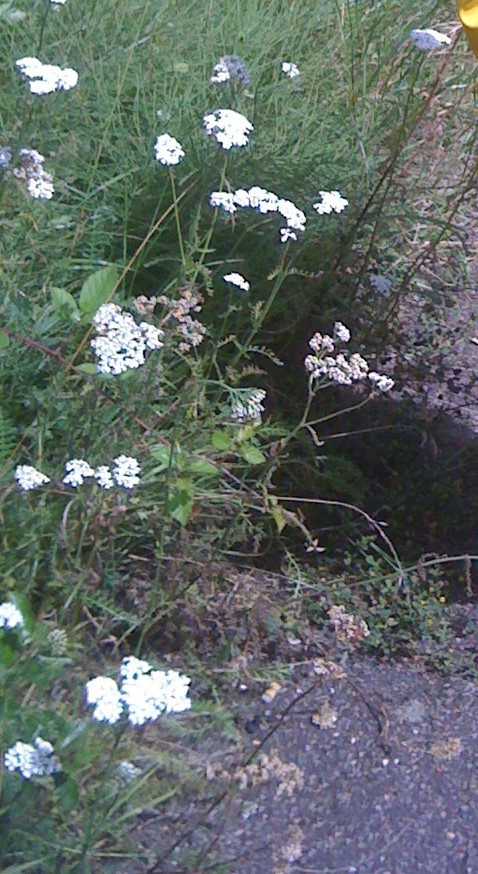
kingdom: Plantae
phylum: Tracheophyta
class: Magnoliopsida
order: Asterales
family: Asteraceae
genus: Achillea
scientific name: Achillea millefolium
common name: Yarrow
